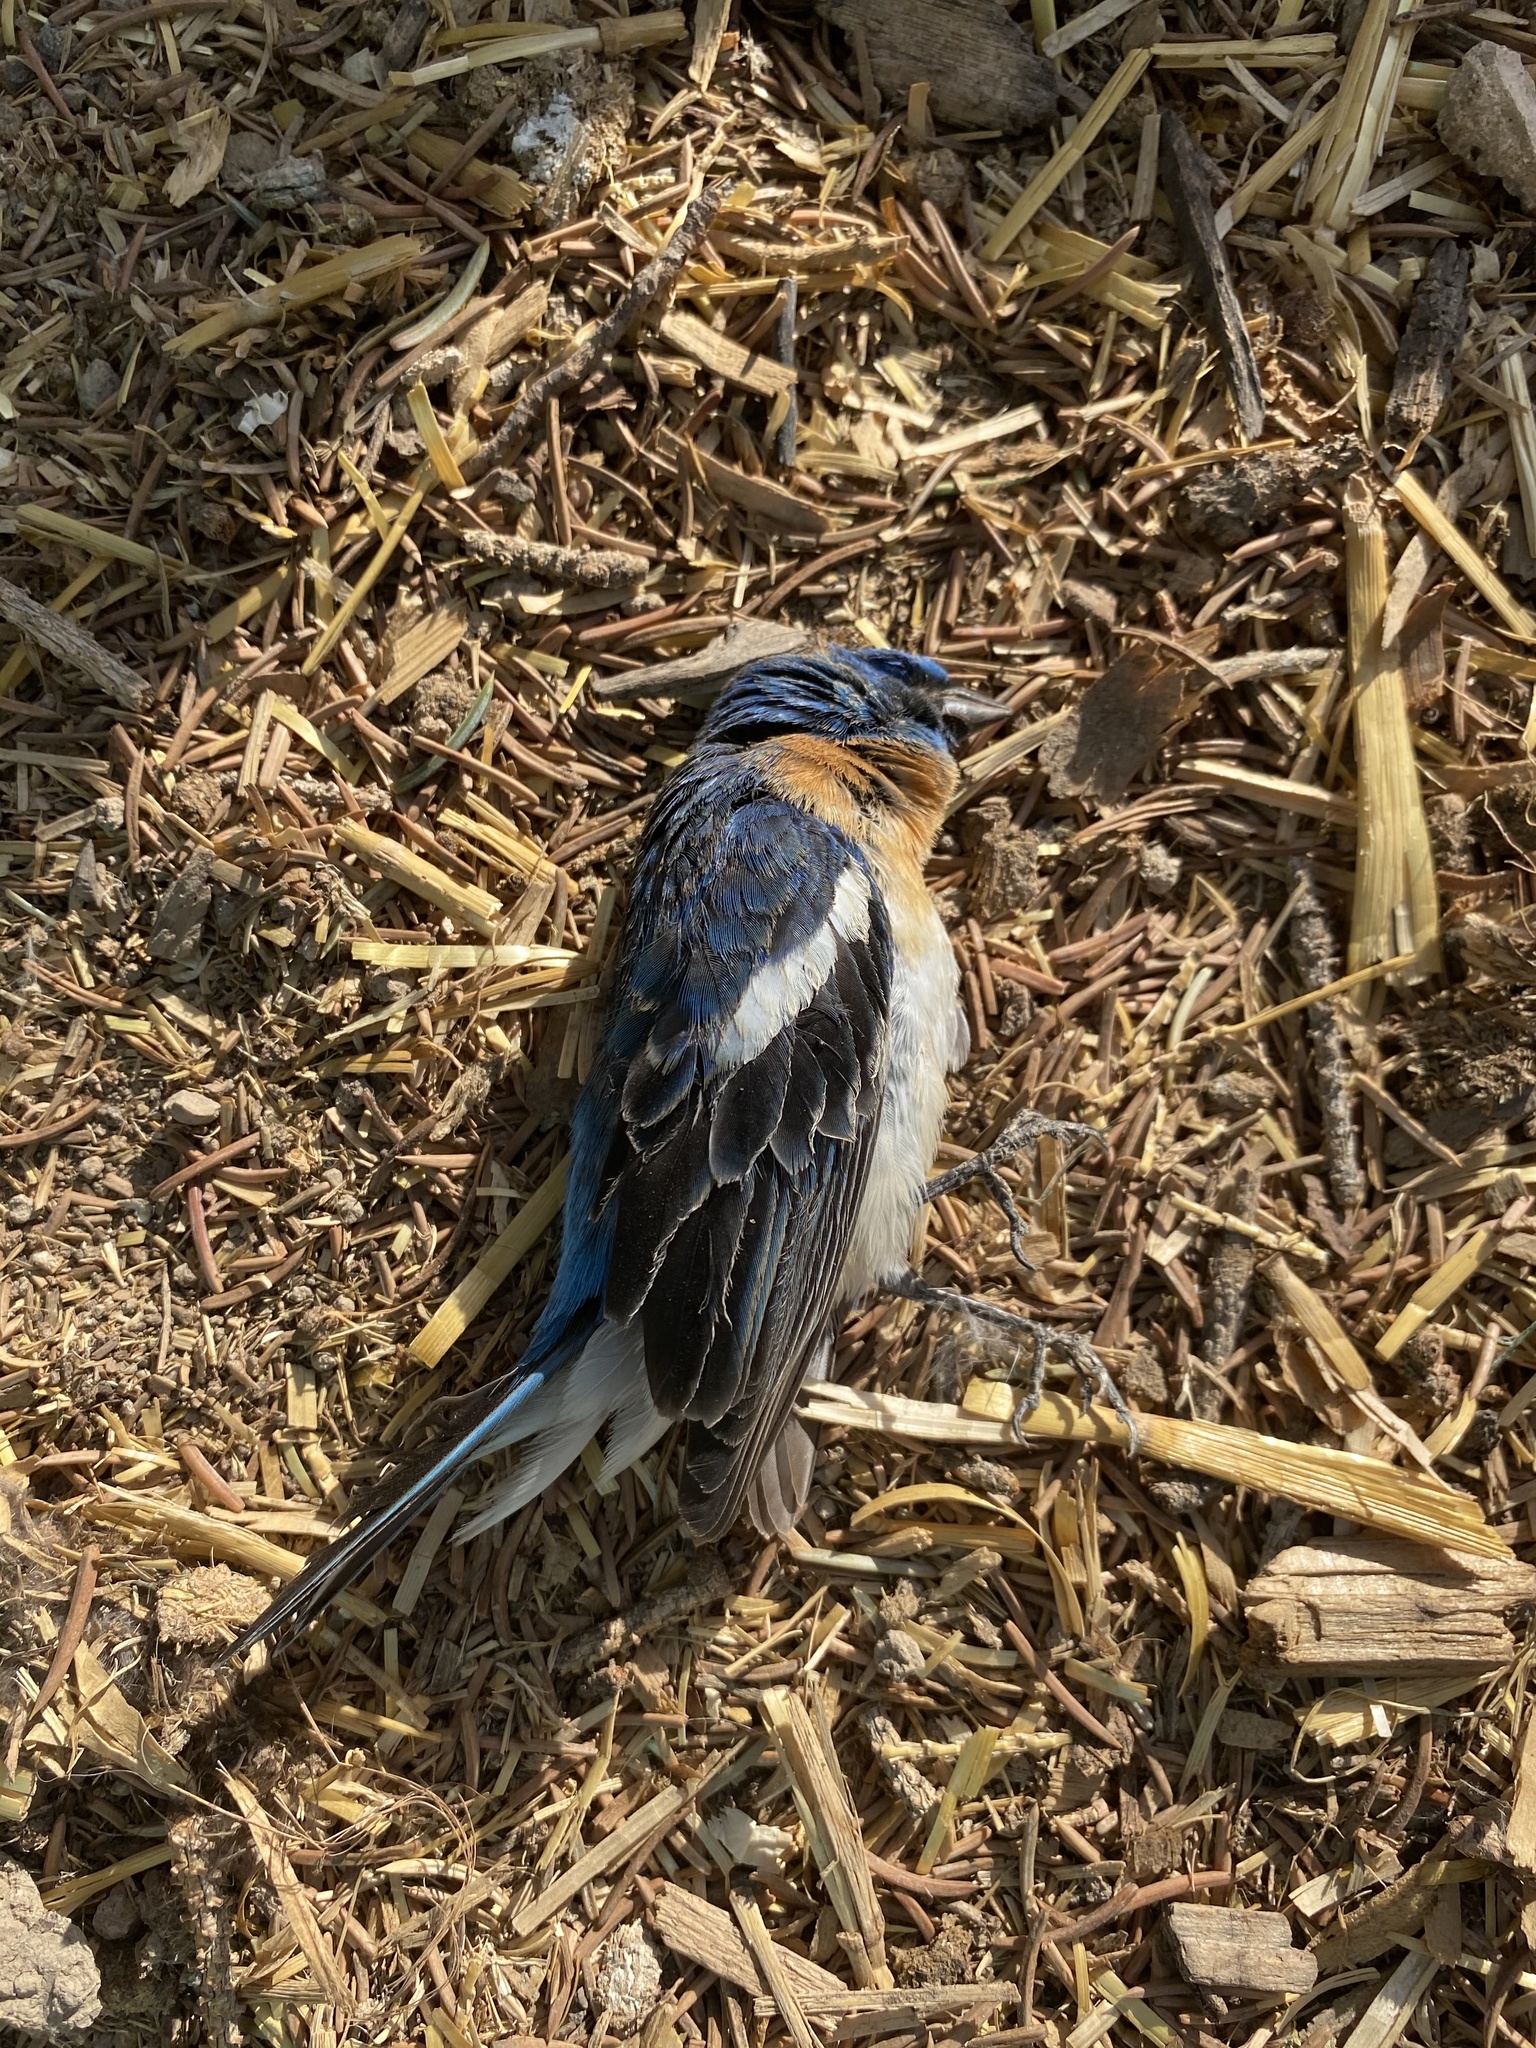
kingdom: Animalia
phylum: Chordata
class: Aves
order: Passeriformes
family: Cardinalidae
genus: Passerina
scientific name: Passerina amoena
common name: Lazuli bunting
